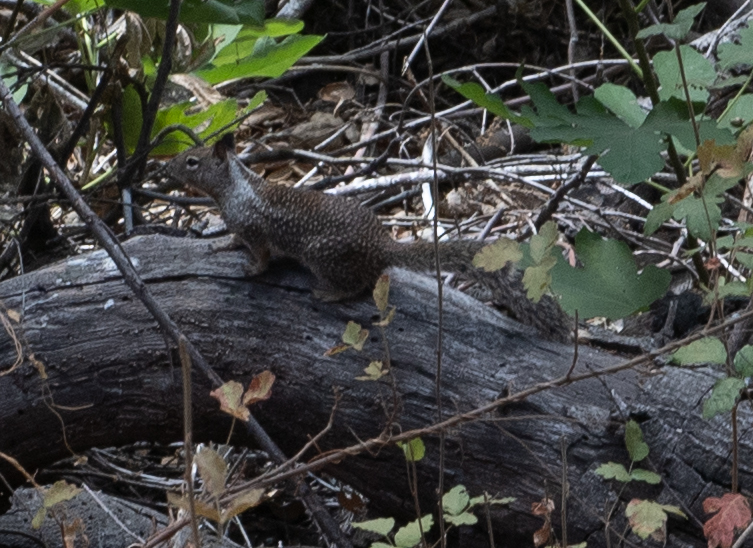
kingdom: Animalia
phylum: Chordata
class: Mammalia
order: Rodentia
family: Sciuridae
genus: Otospermophilus
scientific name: Otospermophilus beecheyi
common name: California ground squirrel
